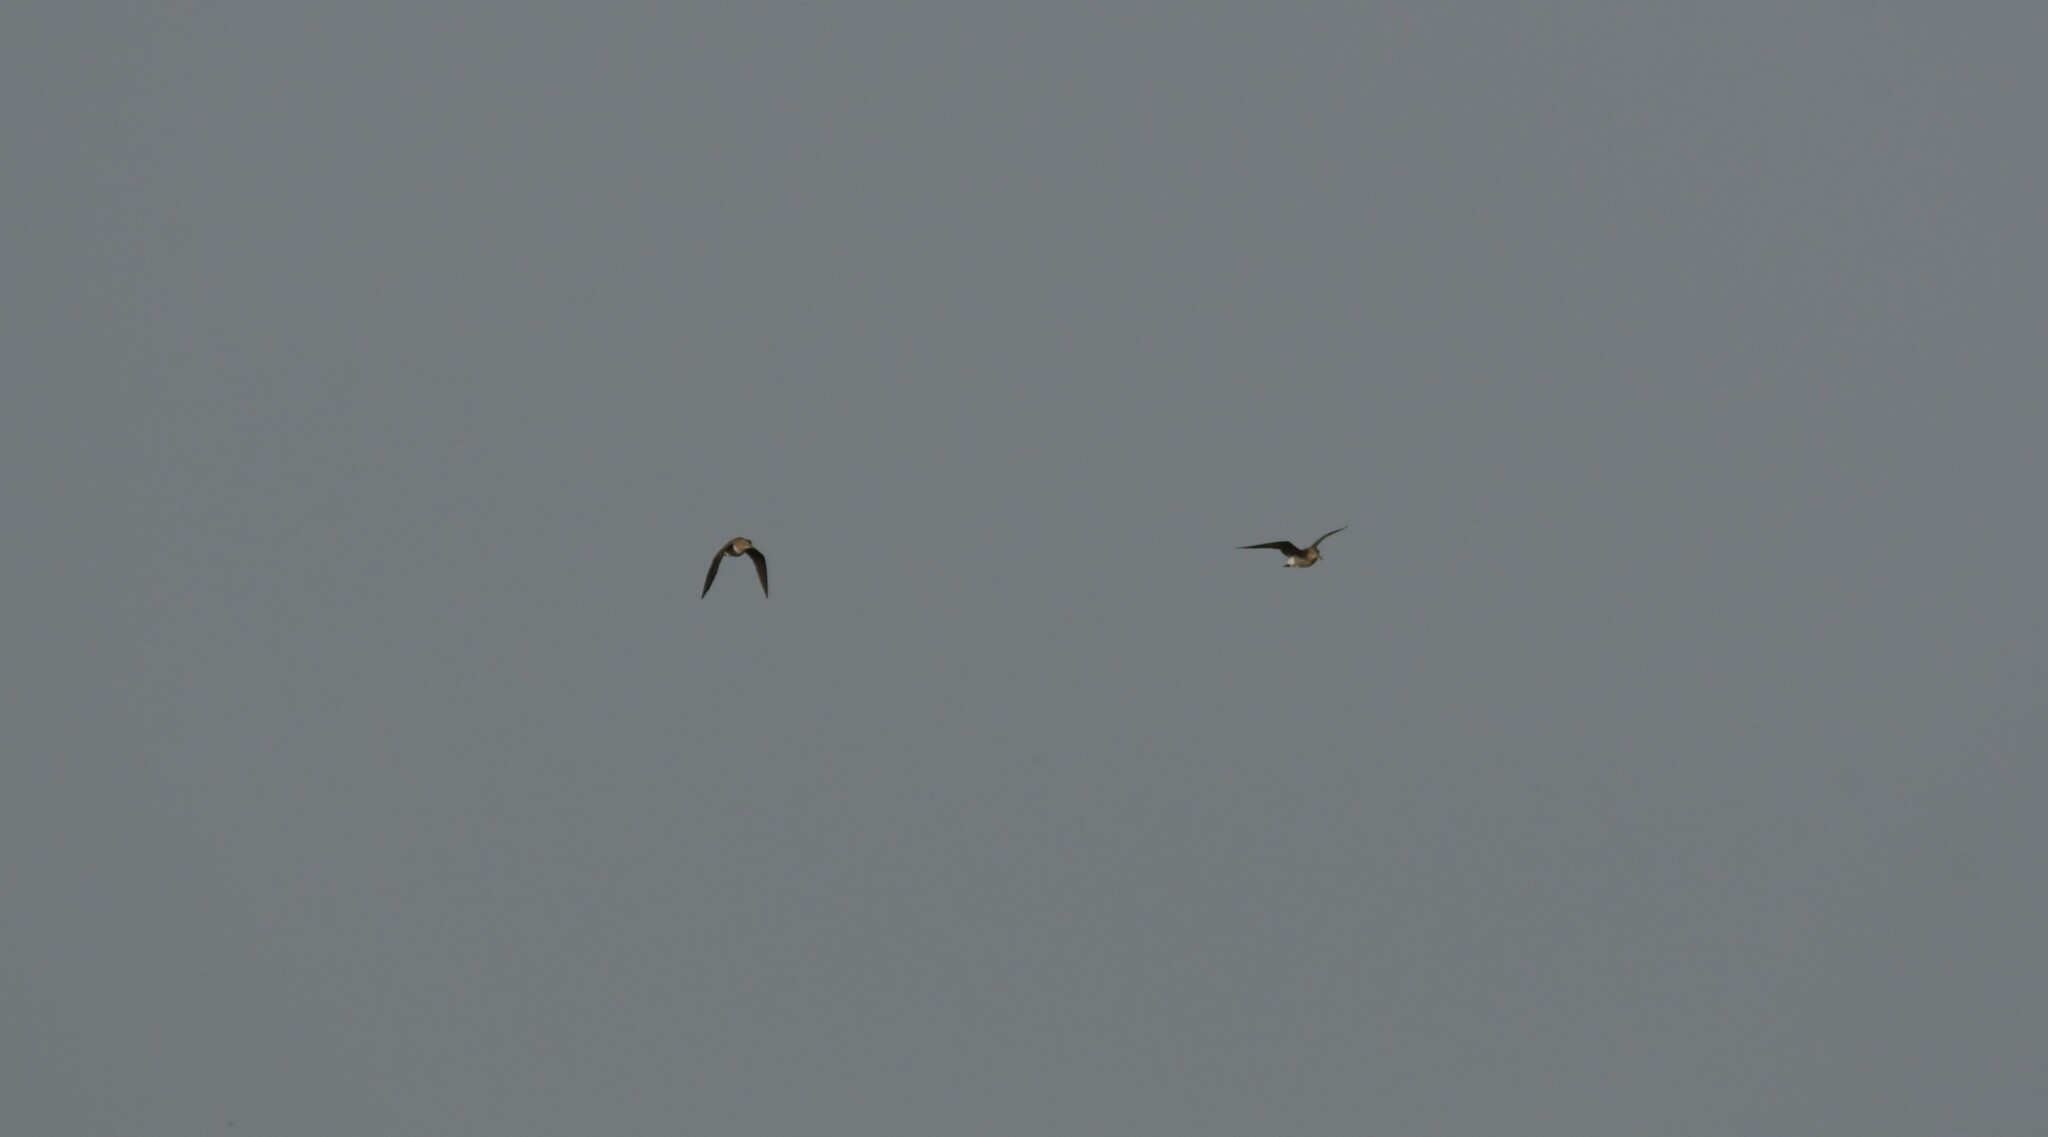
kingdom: Animalia
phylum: Chordata
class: Aves
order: Charadriiformes
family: Scolopacidae
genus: Tringa
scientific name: Tringa ochropus
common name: Green sandpiper
